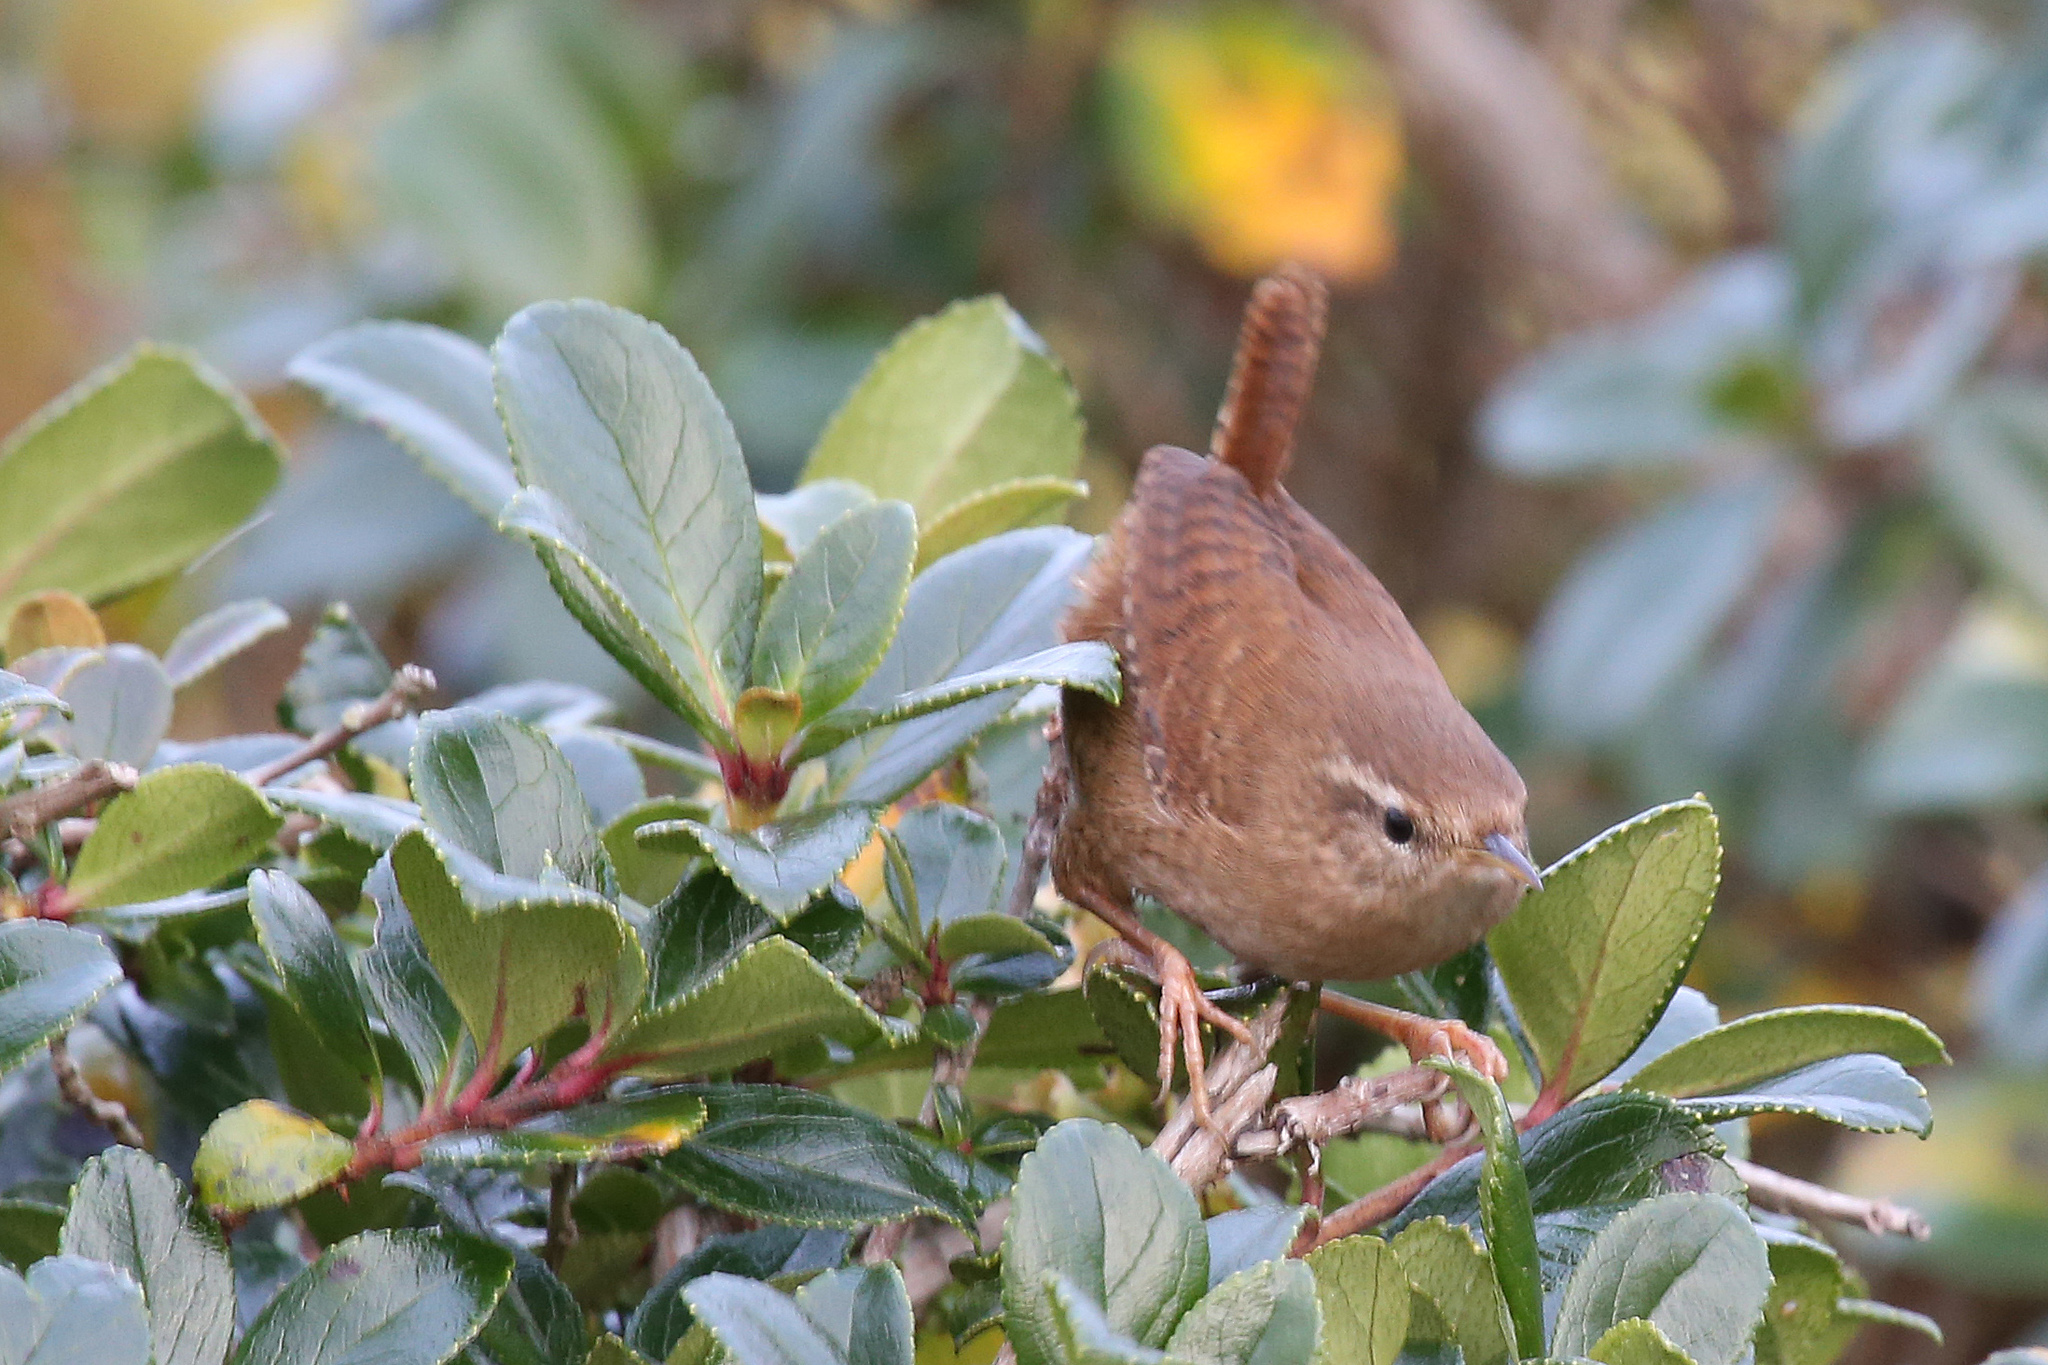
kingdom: Animalia
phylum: Chordata
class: Aves
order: Passeriformes
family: Troglodytidae
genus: Troglodytes
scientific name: Troglodytes troglodytes
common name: Eurasian wren
